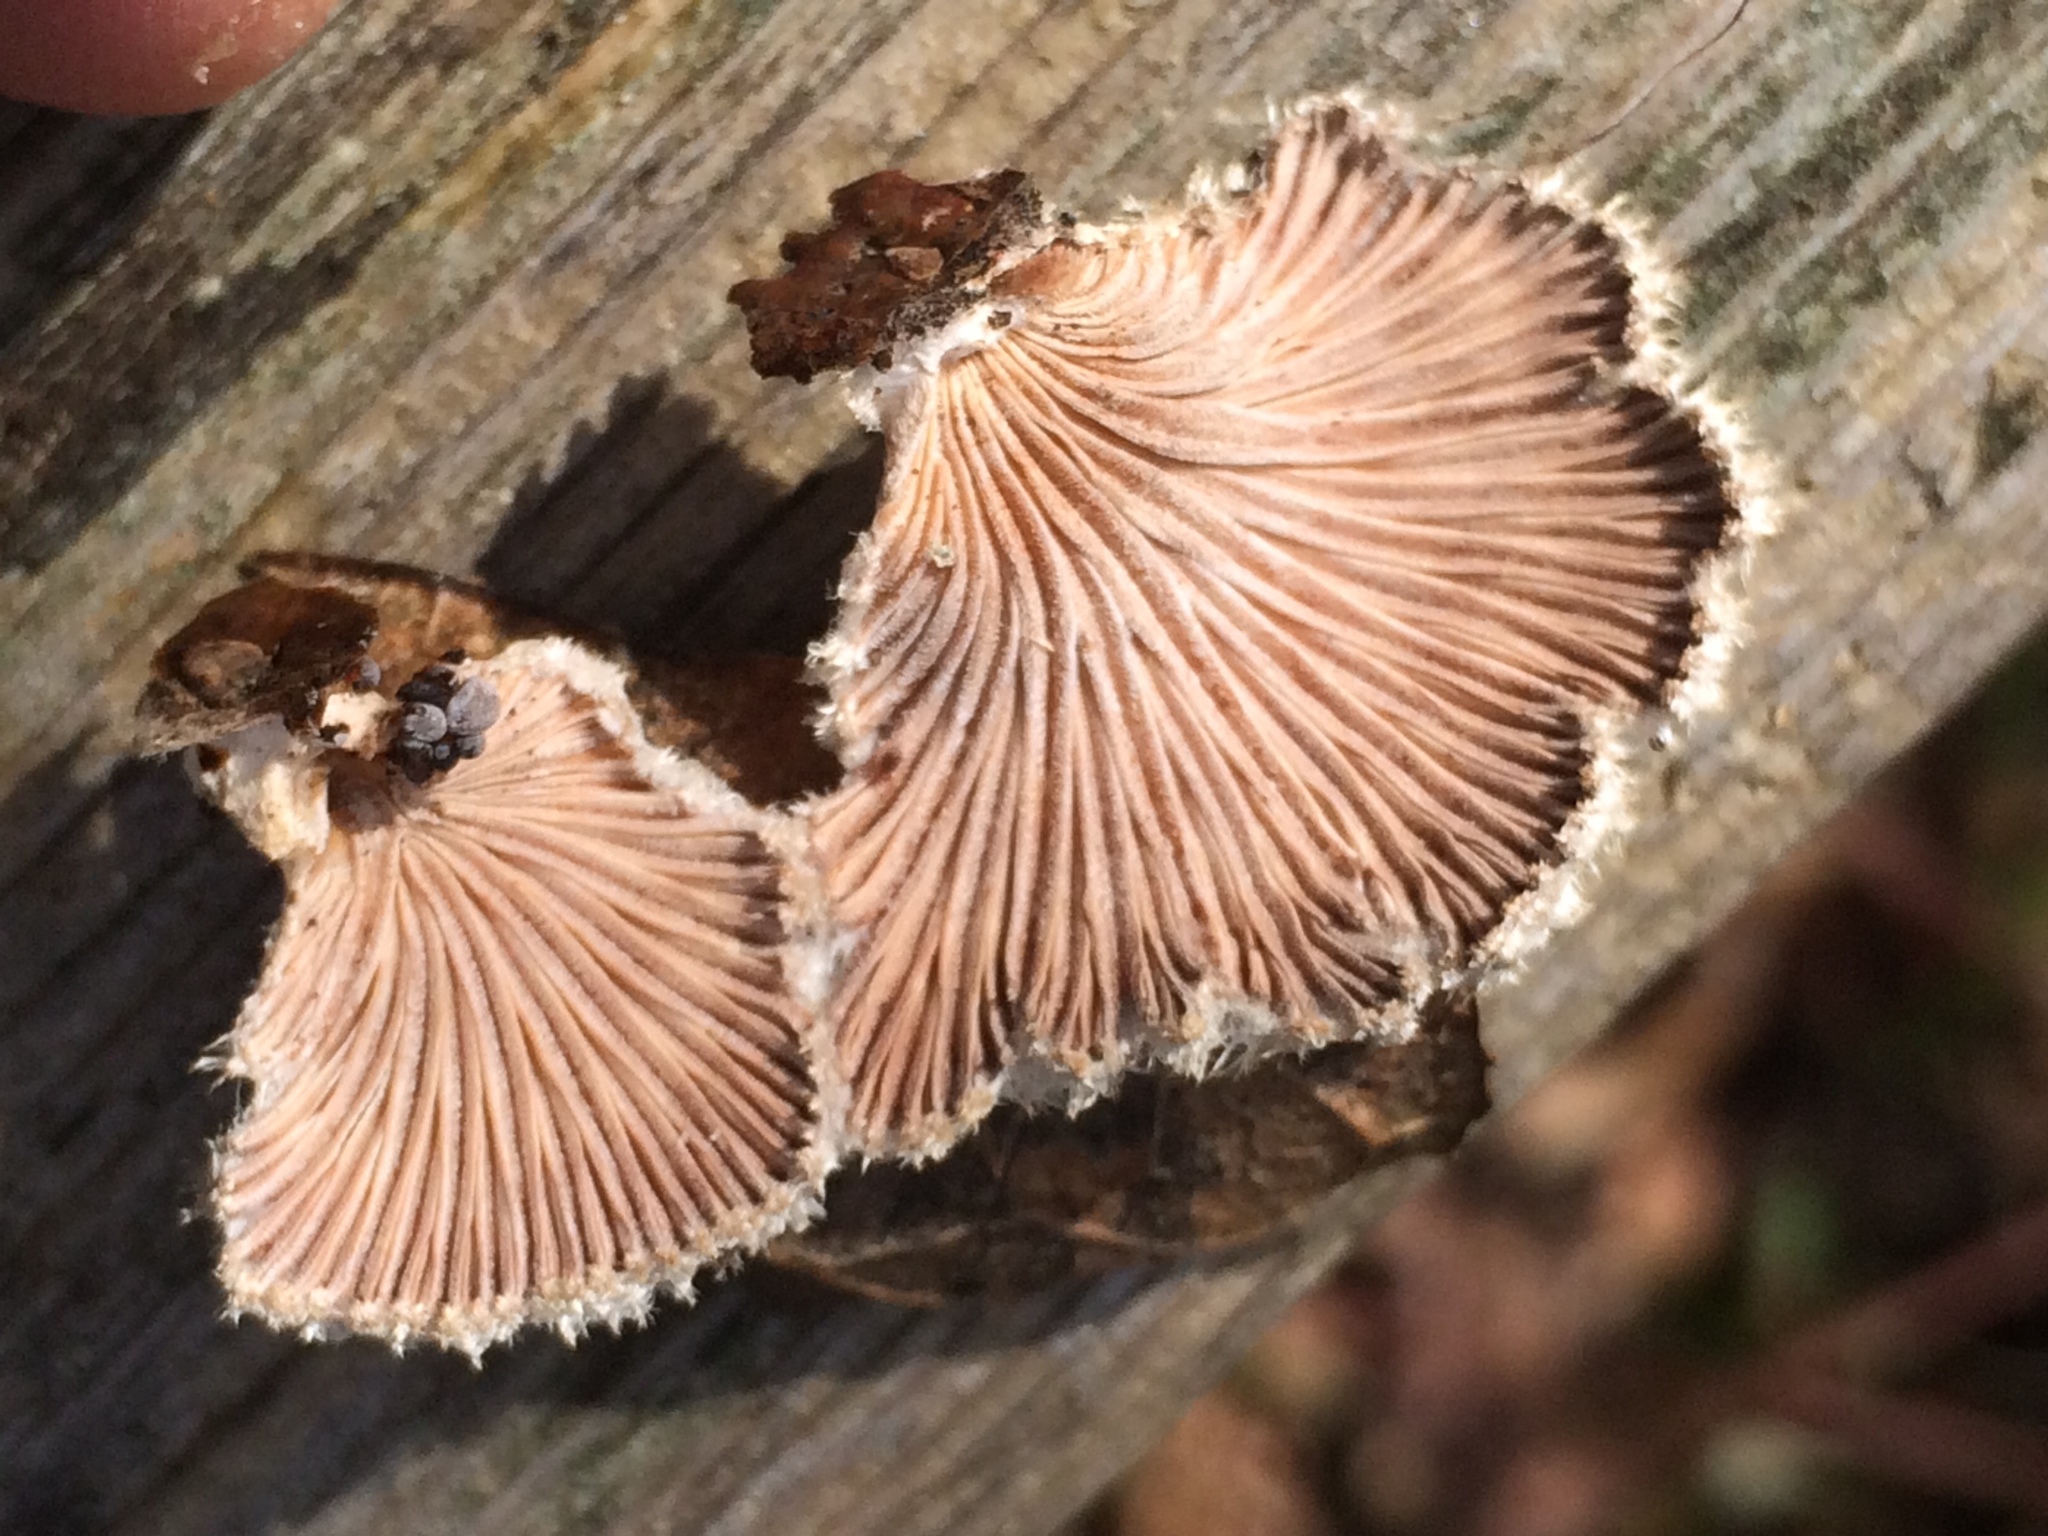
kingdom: Fungi
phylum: Basidiomycota
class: Agaricomycetes
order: Agaricales
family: Schizophyllaceae
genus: Schizophyllum
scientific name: Schizophyllum commune
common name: Common porecrust
